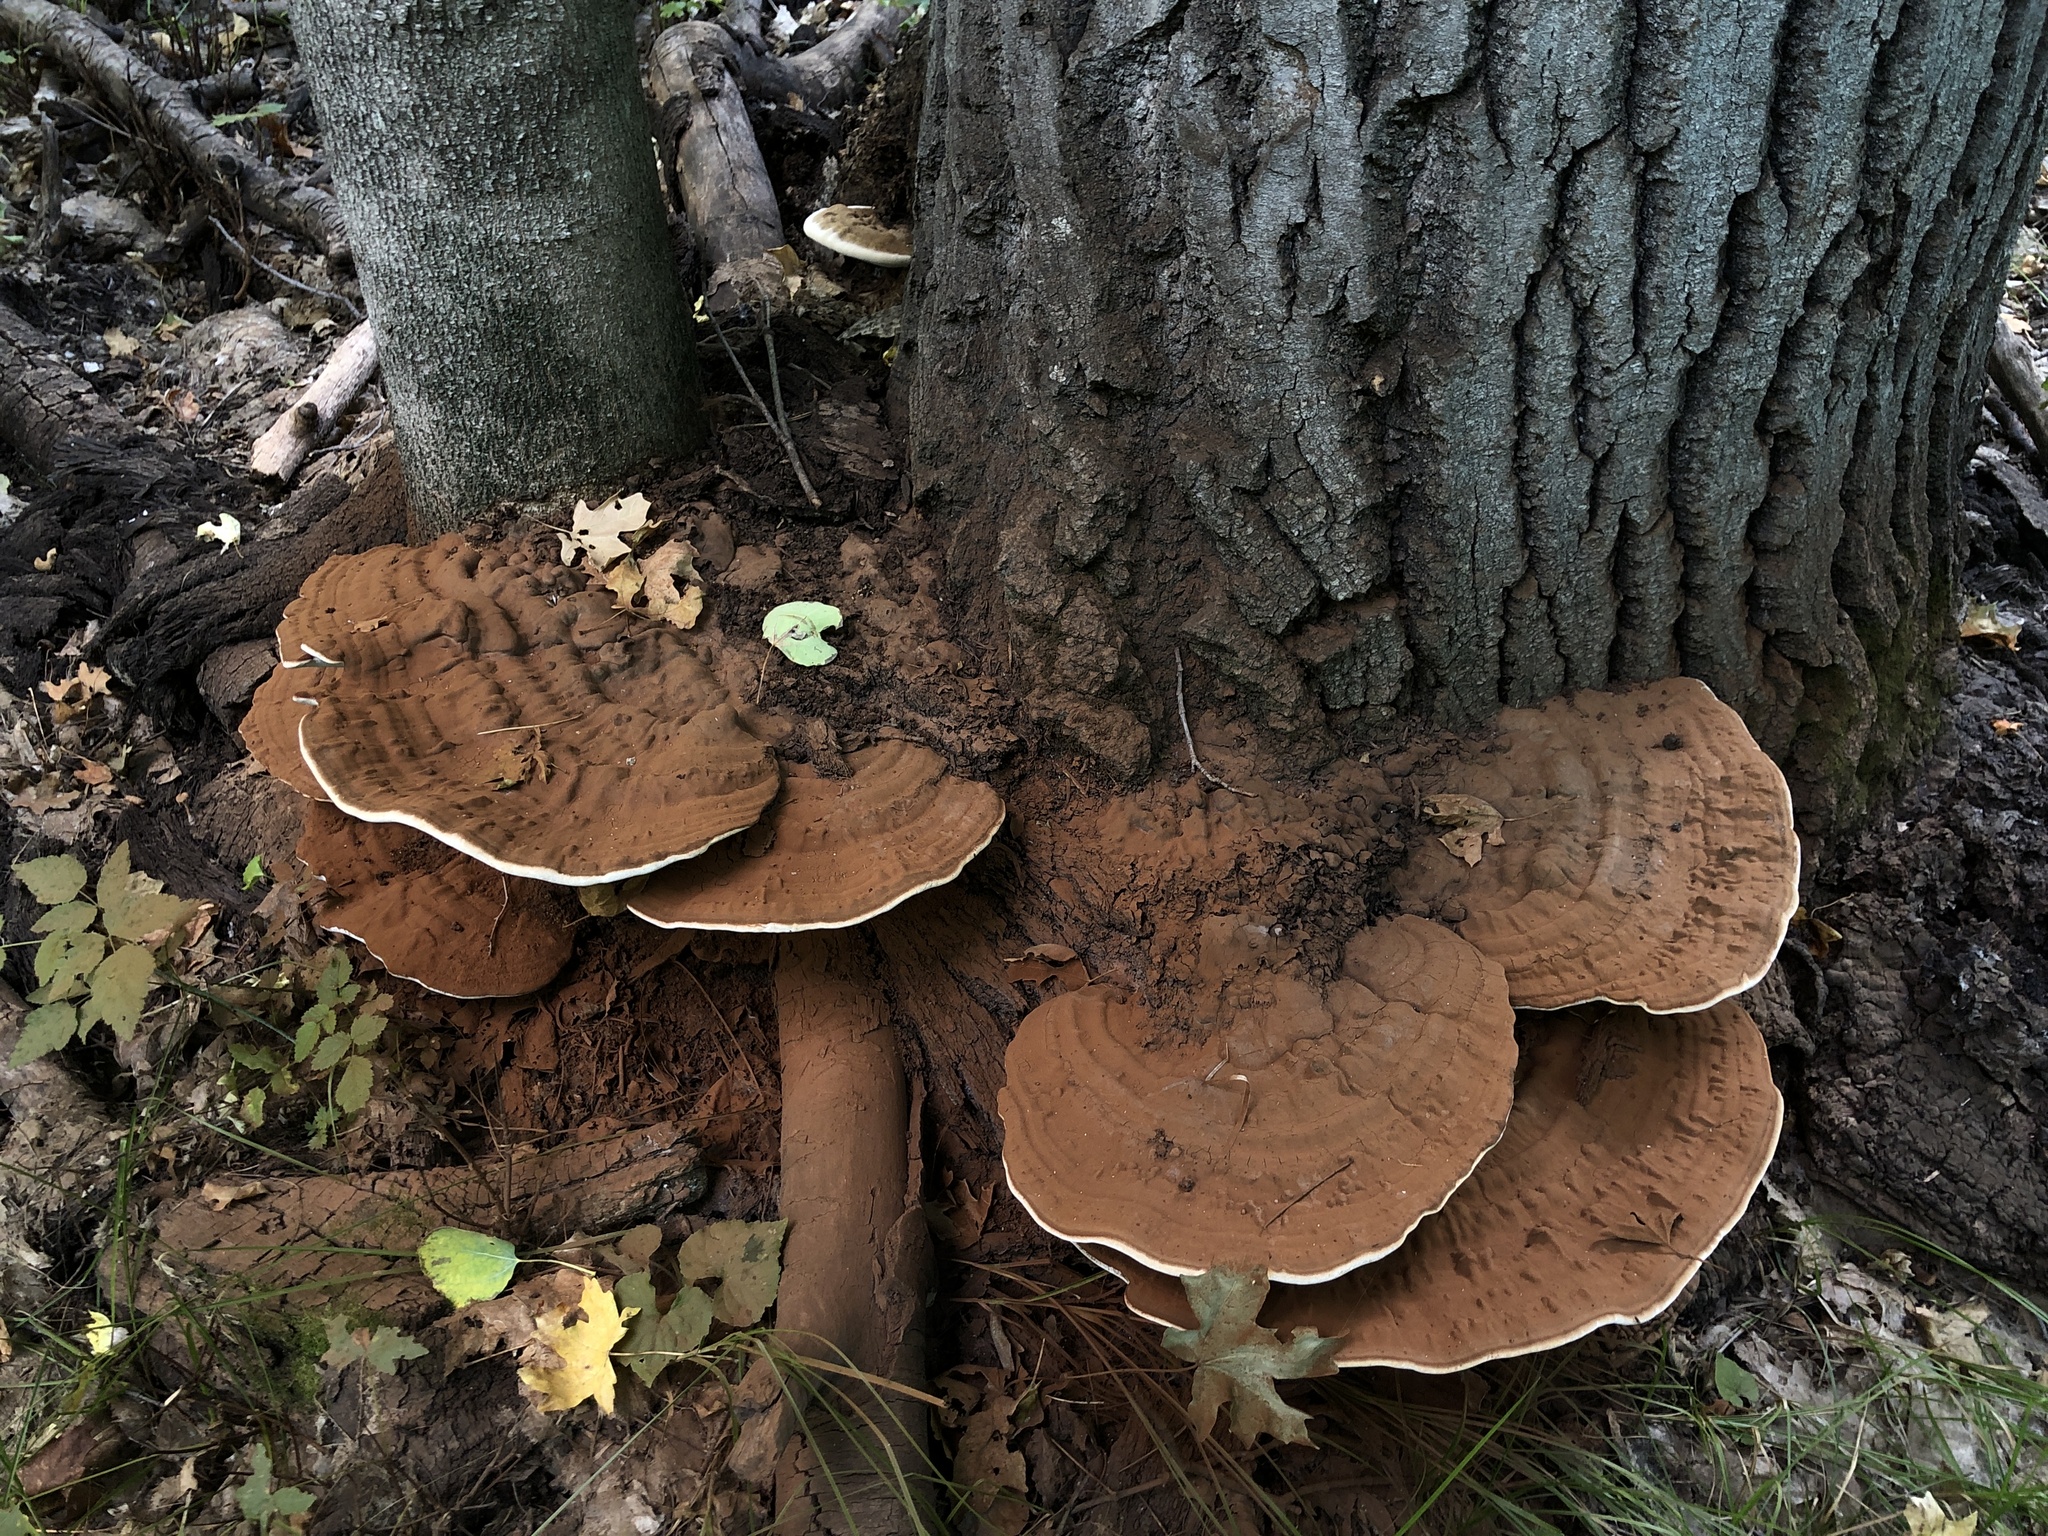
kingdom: Fungi
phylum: Basidiomycota
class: Agaricomycetes
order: Polyporales
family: Polyporaceae
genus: Ganoderma
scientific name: Ganoderma applanatum
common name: Artist's bracket
